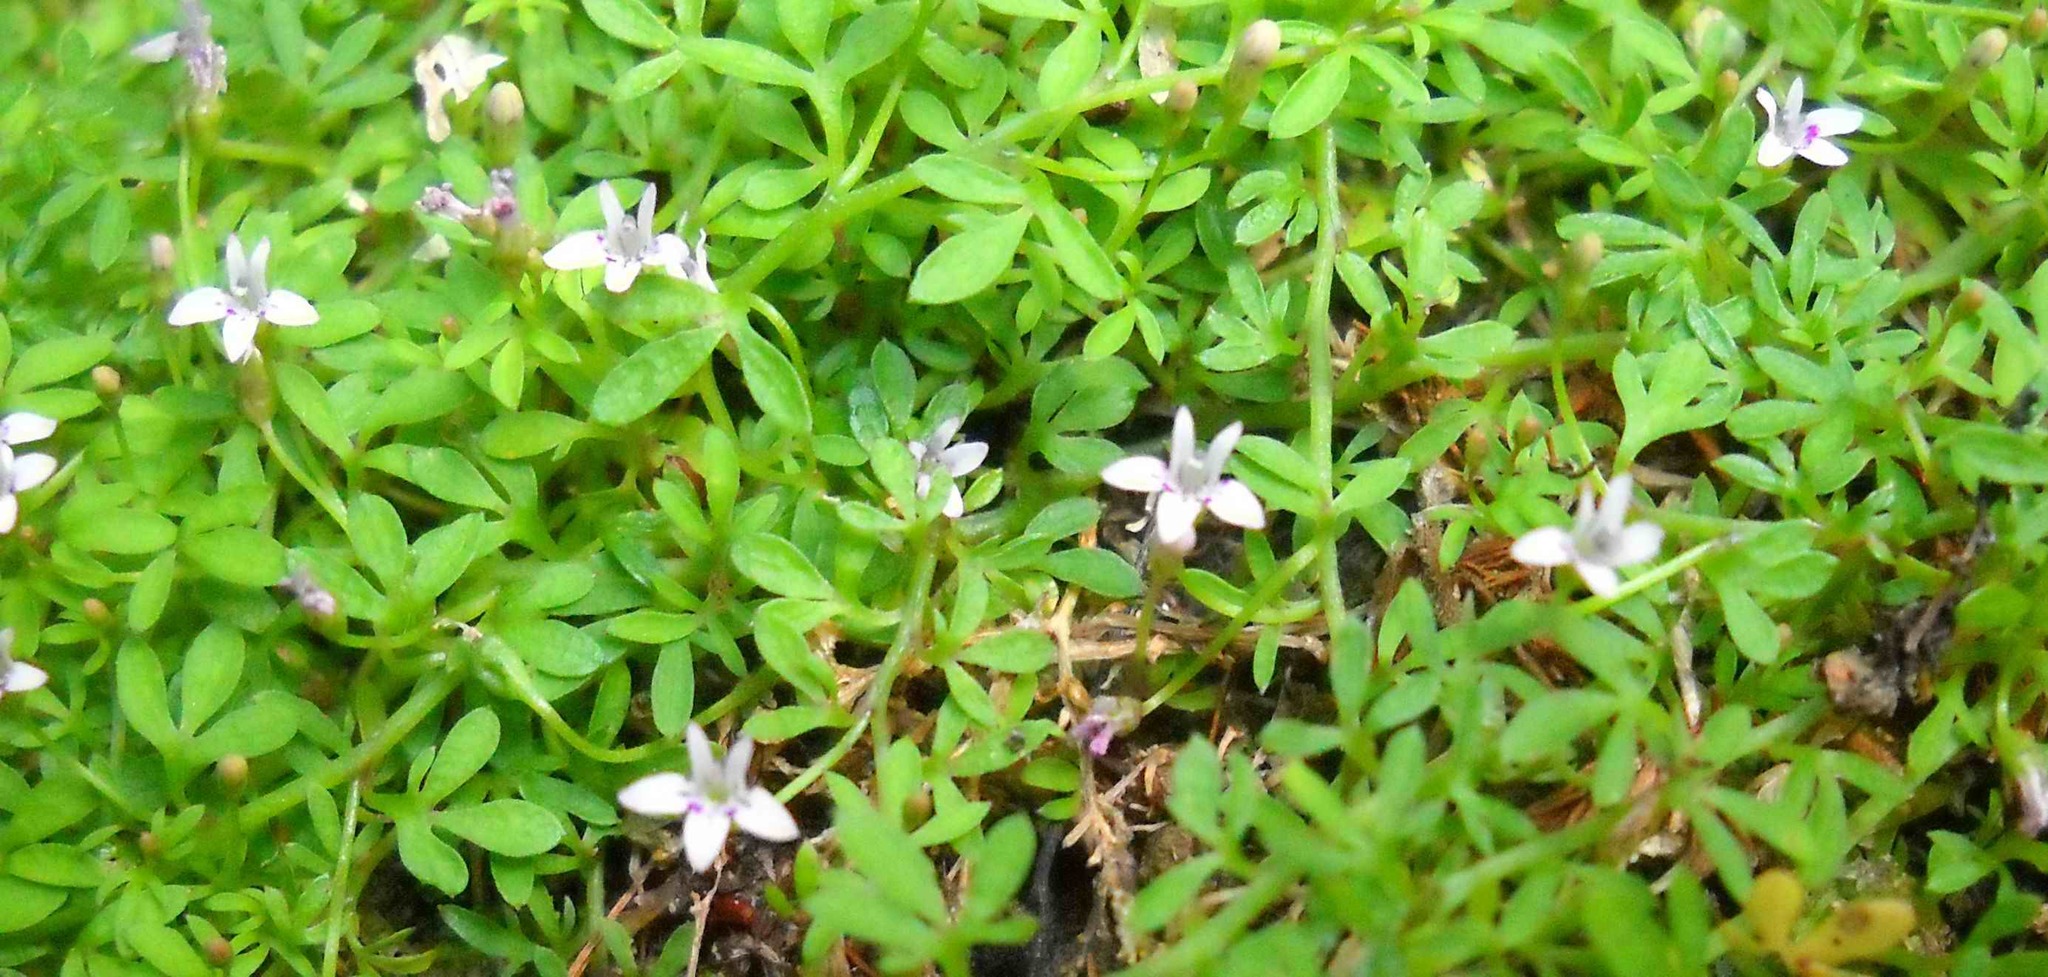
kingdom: Plantae
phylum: Tracheophyta
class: Magnoliopsida
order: Asterales
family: Campanulaceae
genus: Lobelia
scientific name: Lobelia muscoides
